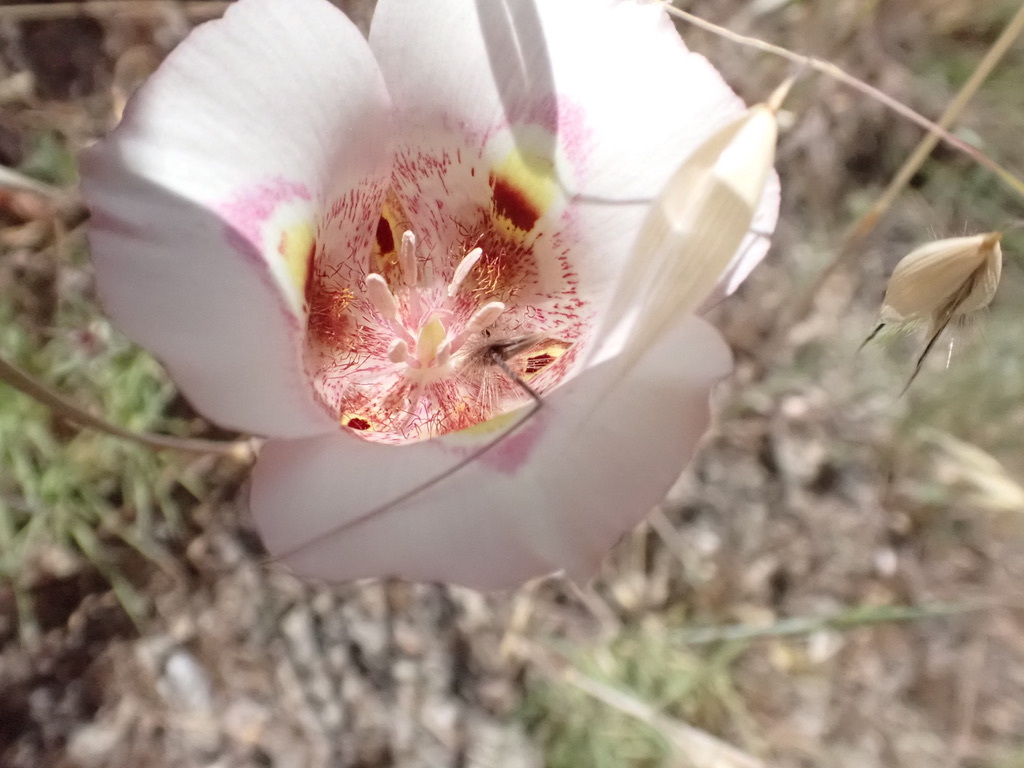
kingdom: Plantae
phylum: Tracheophyta
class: Liliopsida
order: Liliales
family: Liliaceae
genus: Calochortus
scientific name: Calochortus argillosus
